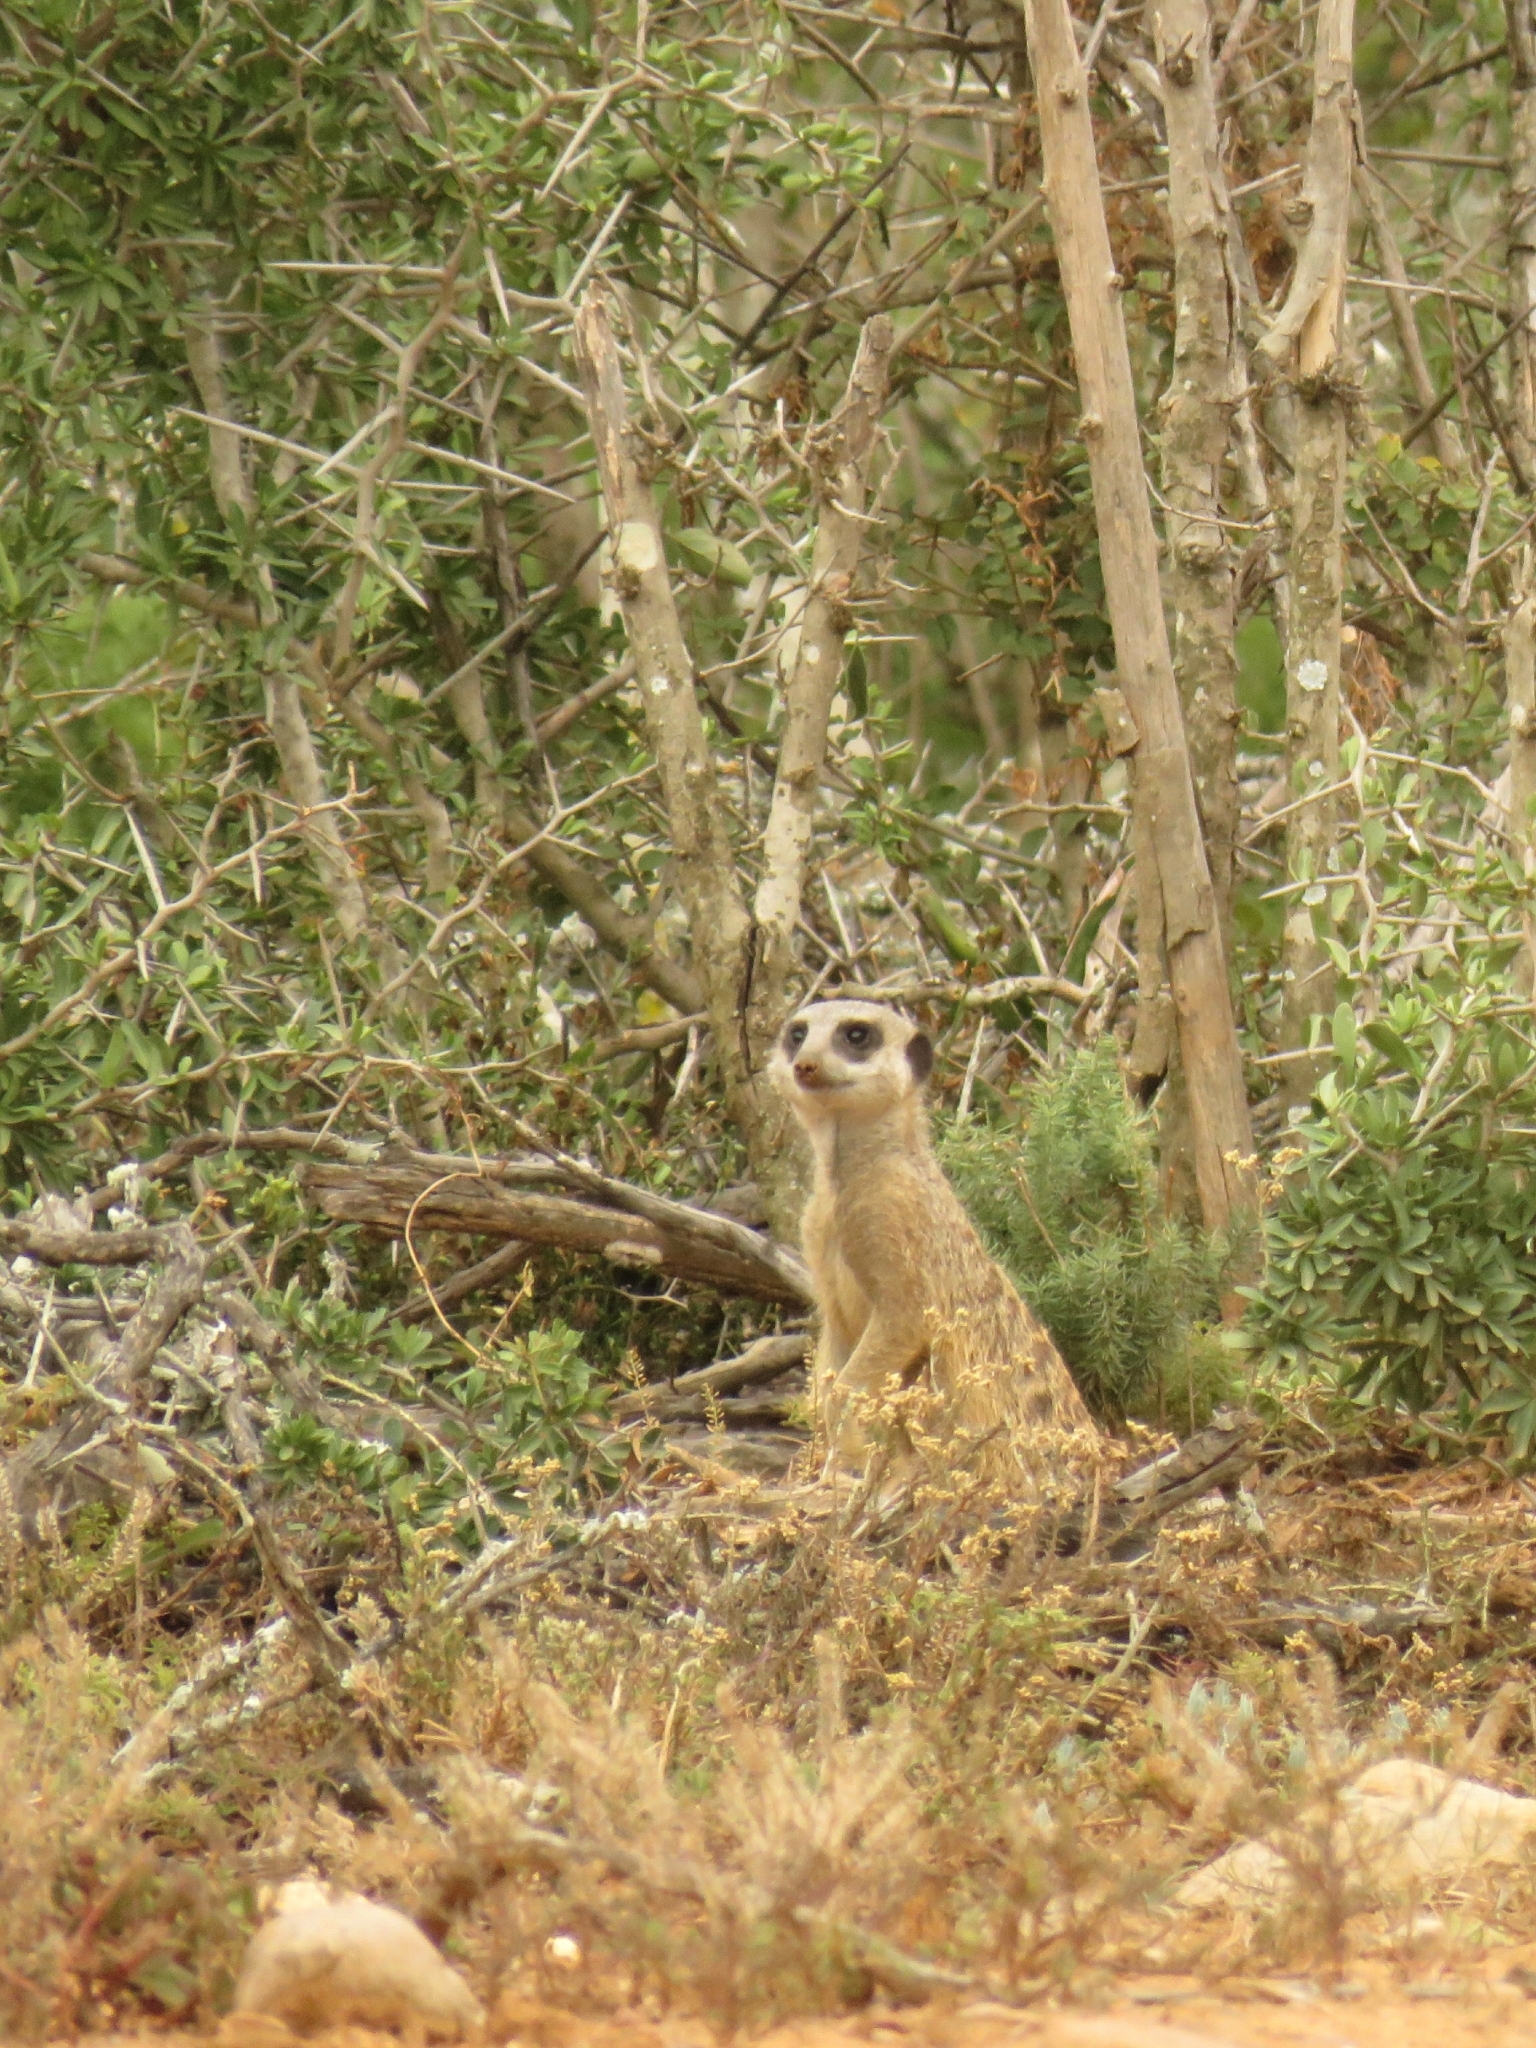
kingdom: Animalia
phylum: Chordata
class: Mammalia
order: Carnivora
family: Herpestidae
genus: Suricata
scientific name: Suricata suricatta
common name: Meerkat
